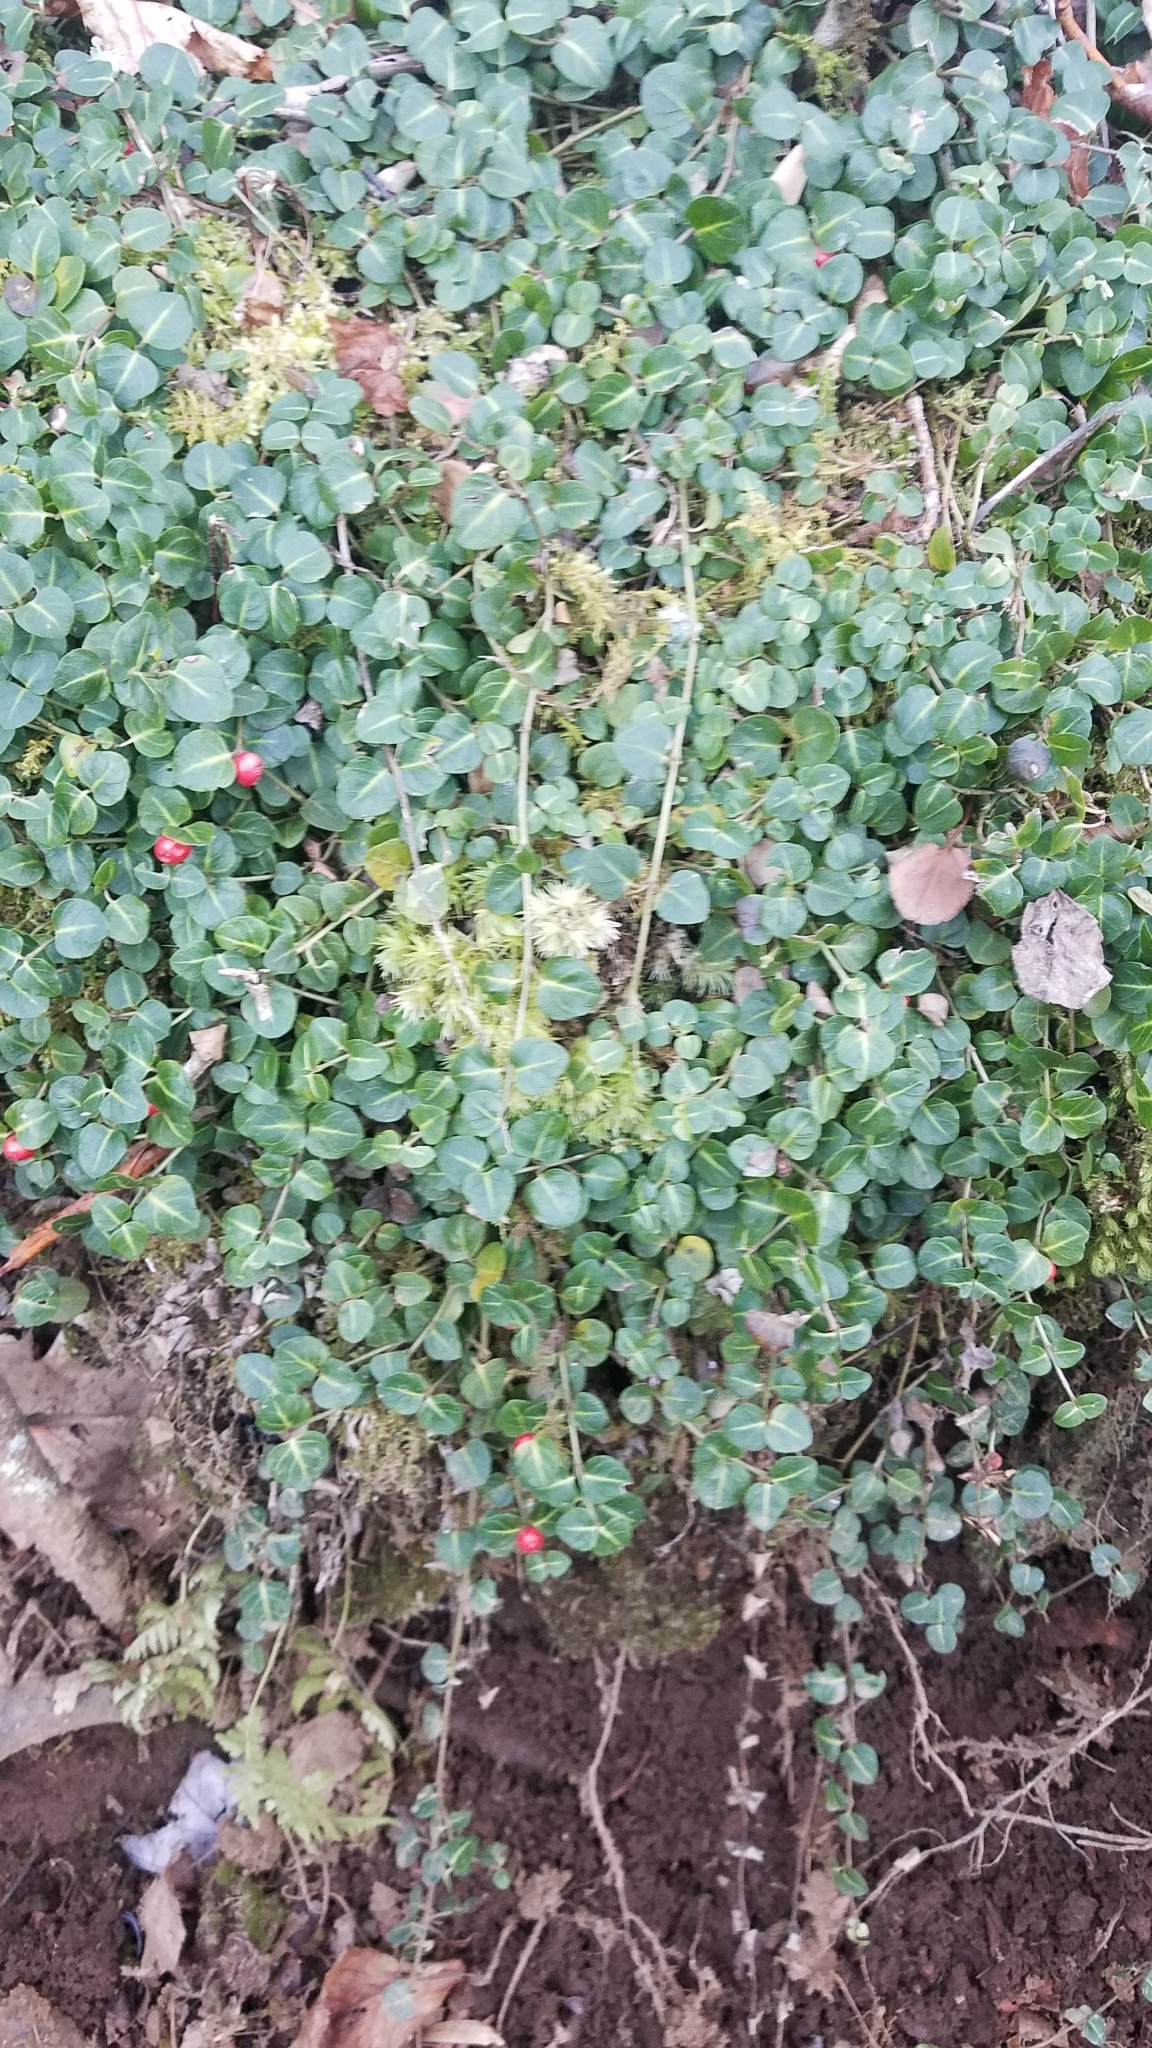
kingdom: Plantae
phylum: Tracheophyta
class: Magnoliopsida
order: Gentianales
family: Rubiaceae
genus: Mitchella
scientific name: Mitchella repens
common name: Partridge-berry
